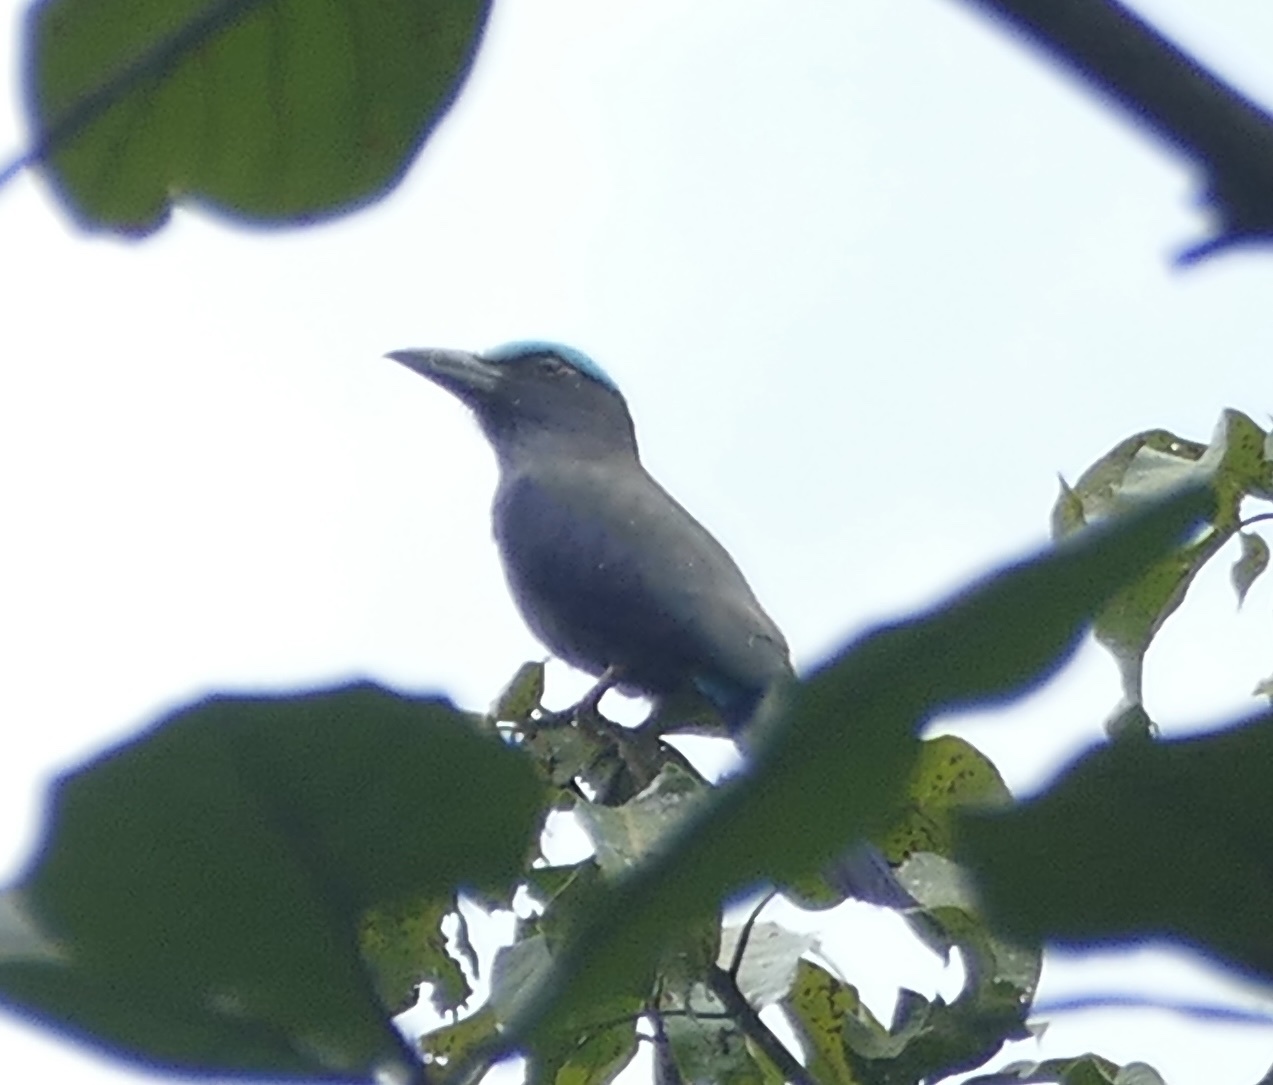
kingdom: Animalia
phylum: Chordata
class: Aves
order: Coraciiformes
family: Coraciidae
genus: Coracias
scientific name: Coracias temminckii
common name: Purple-winged roller
